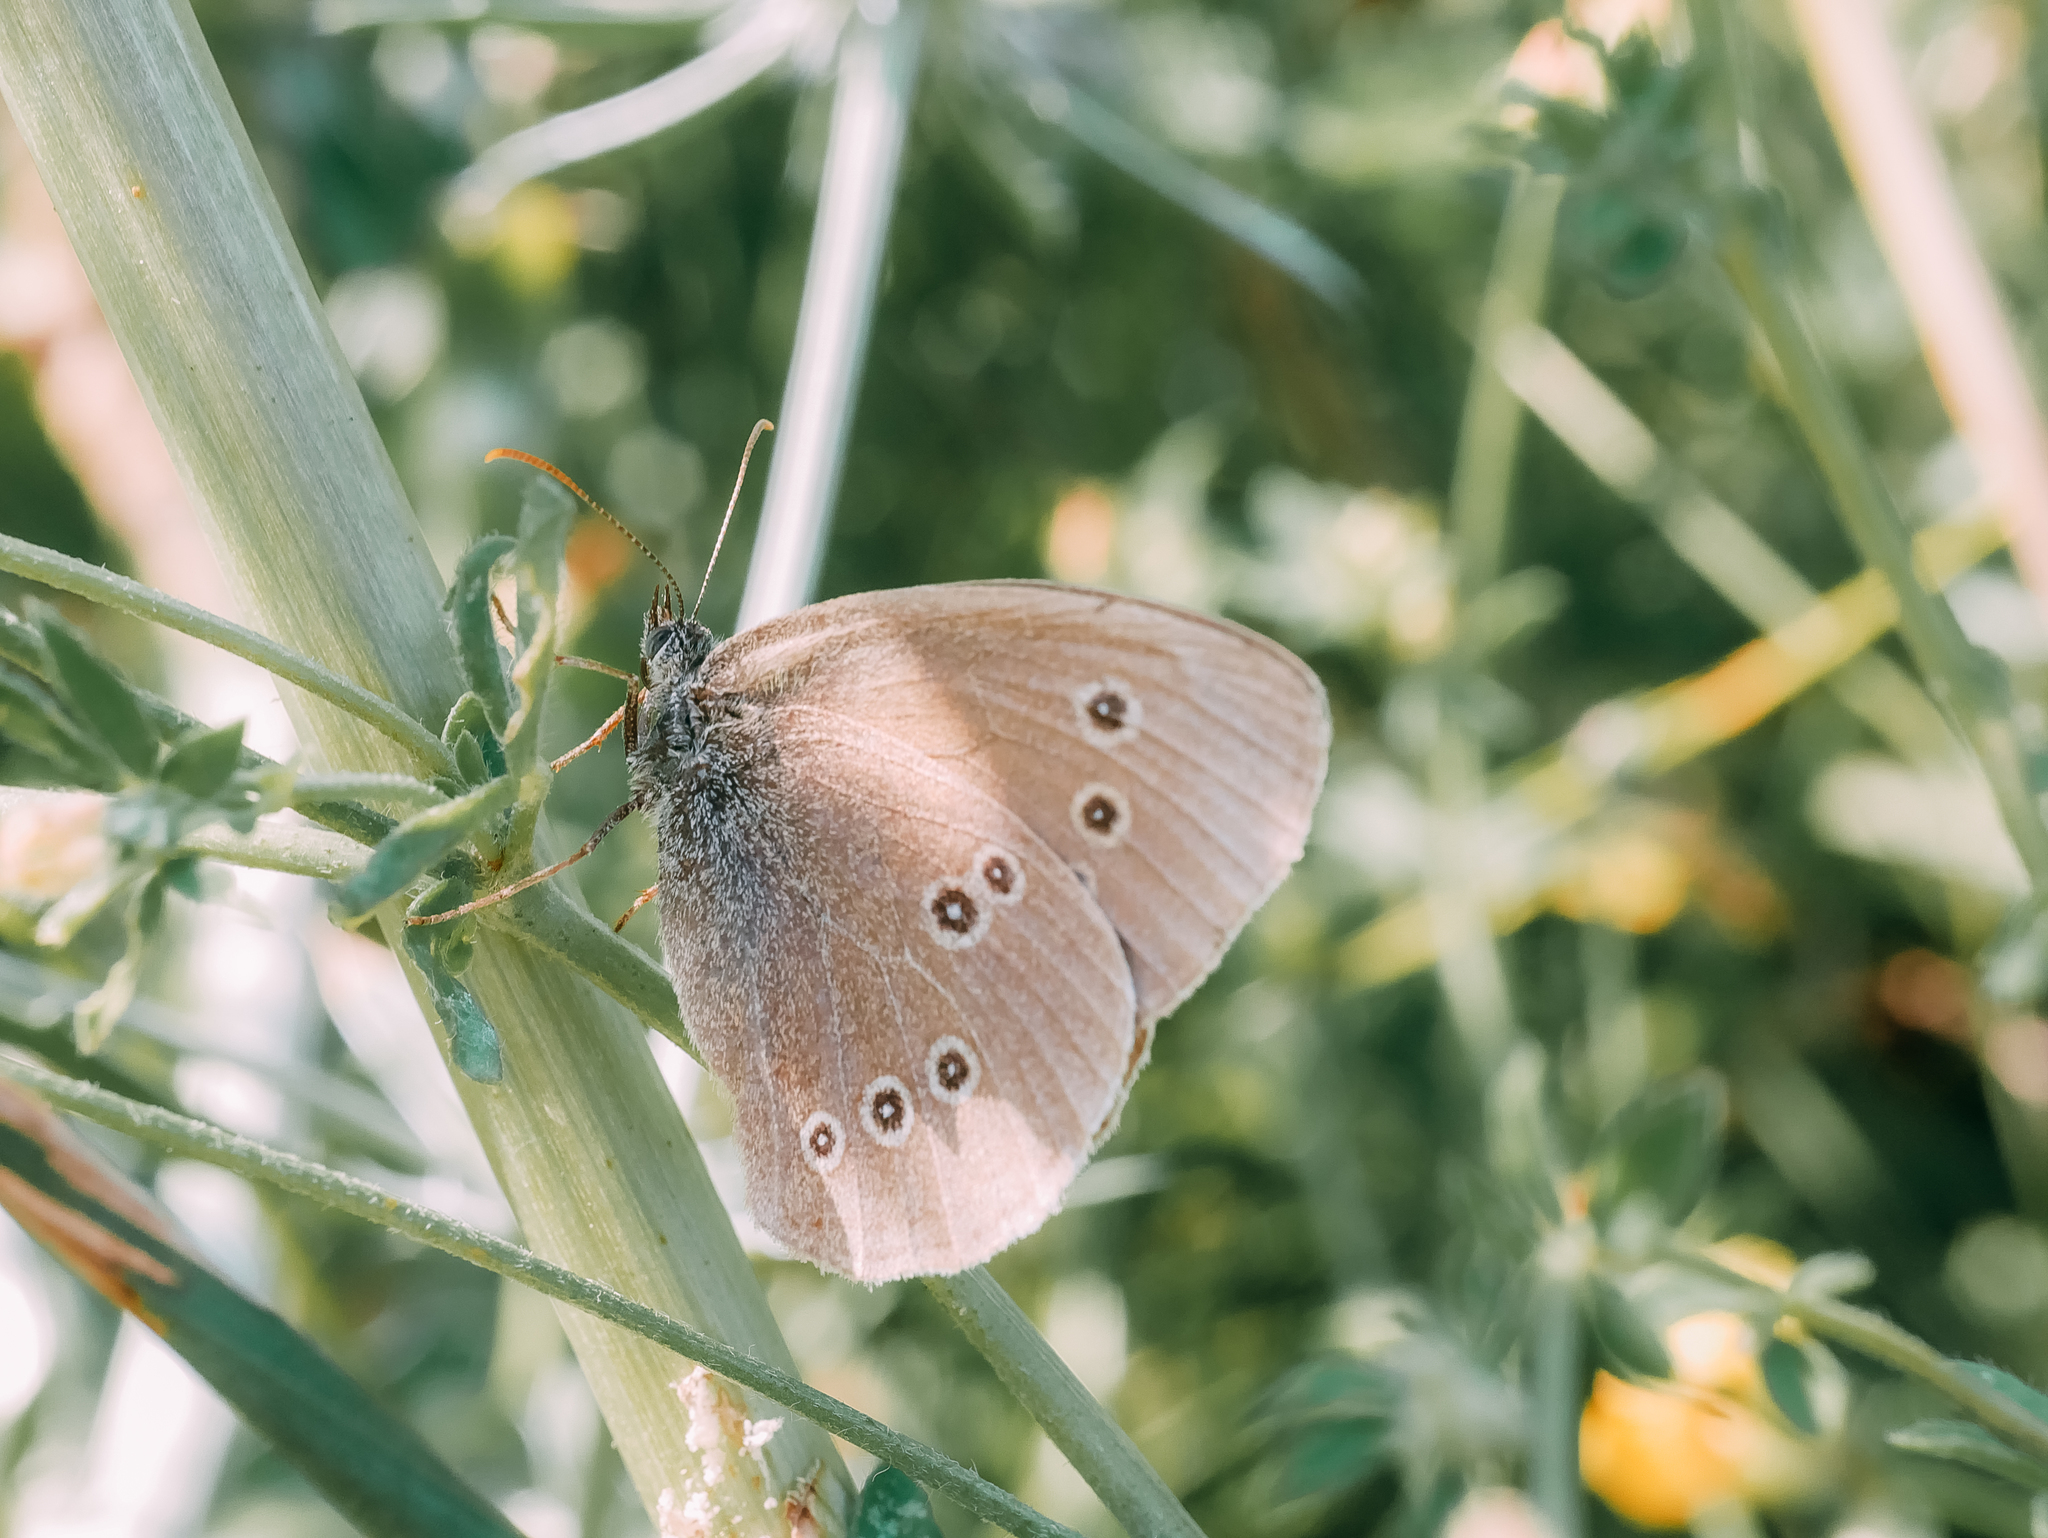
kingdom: Animalia
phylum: Arthropoda
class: Insecta
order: Lepidoptera
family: Nymphalidae
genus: Aphantopus
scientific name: Aphantopus hyperantus
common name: Ringlet
